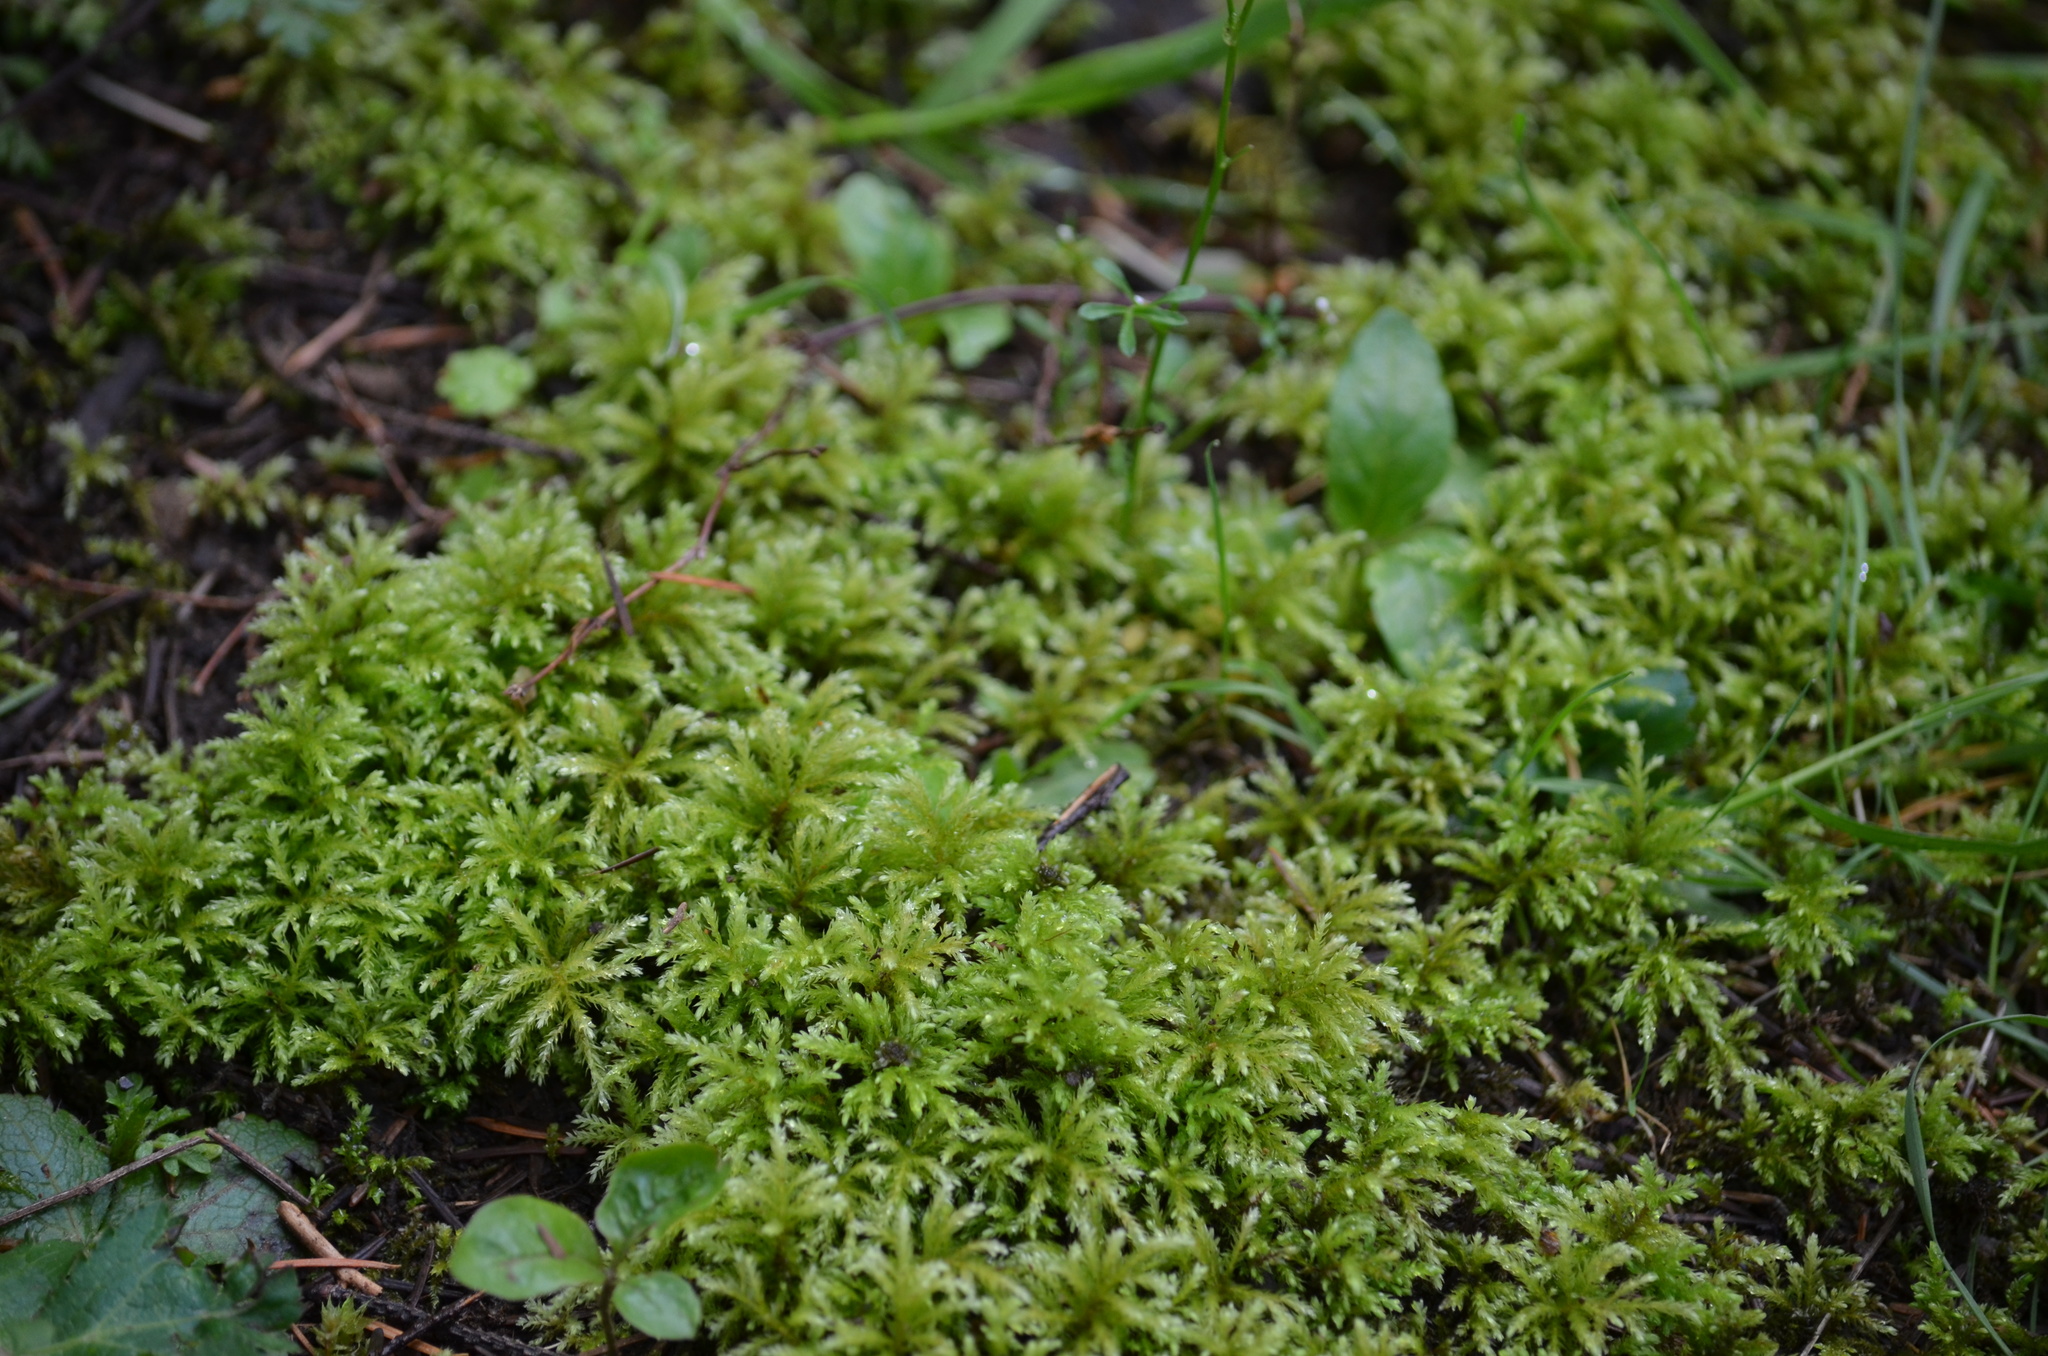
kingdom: Plantae
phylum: Bryophyta
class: Bryopsida
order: Bryales
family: Mniaceae
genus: Leucolepis
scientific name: Leucolepis acanthoneura
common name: Leucolepis umbrella moss
